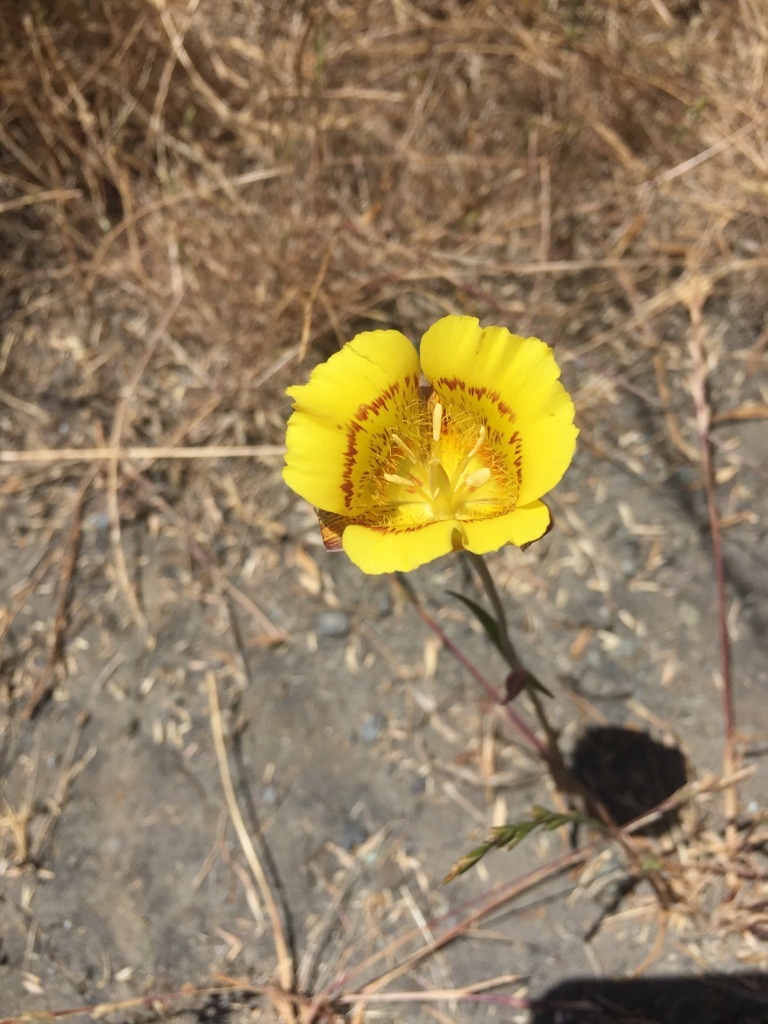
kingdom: Plantae
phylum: Tracheophyta
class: Liliopsida
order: Liliales
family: Liliaceae
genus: Calochortus
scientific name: Calochortus luteus
